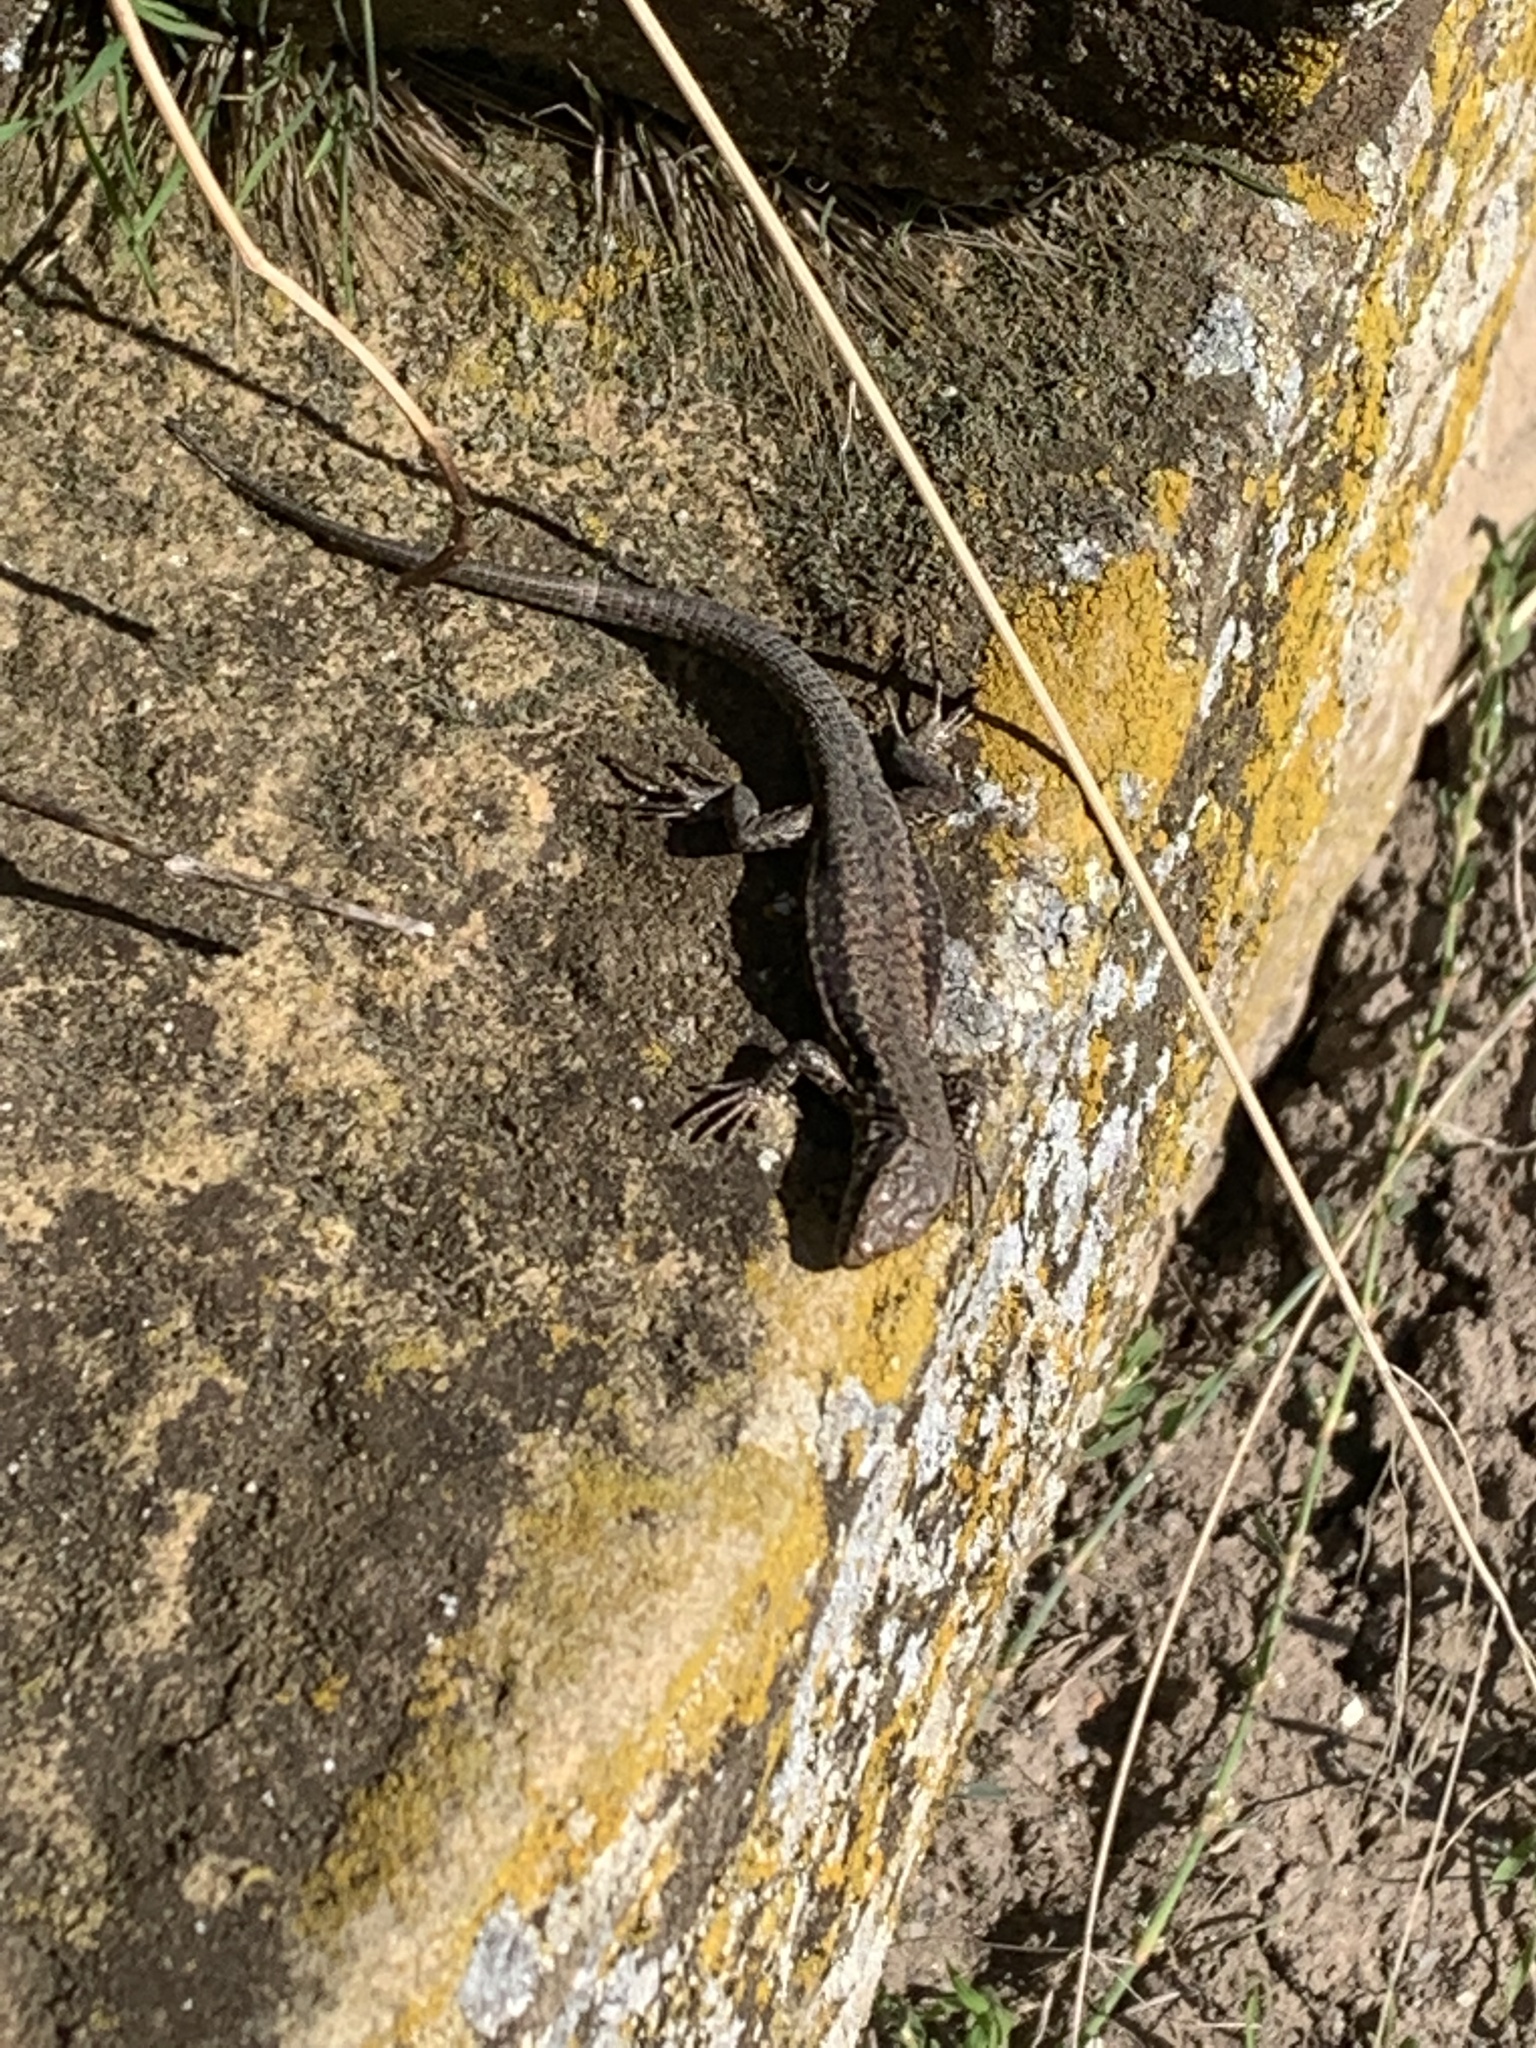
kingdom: Animalia
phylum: Chordata
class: Squamata
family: Lacertidae
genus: Podarcis
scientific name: Podarcis muralis
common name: Common wall lizard
